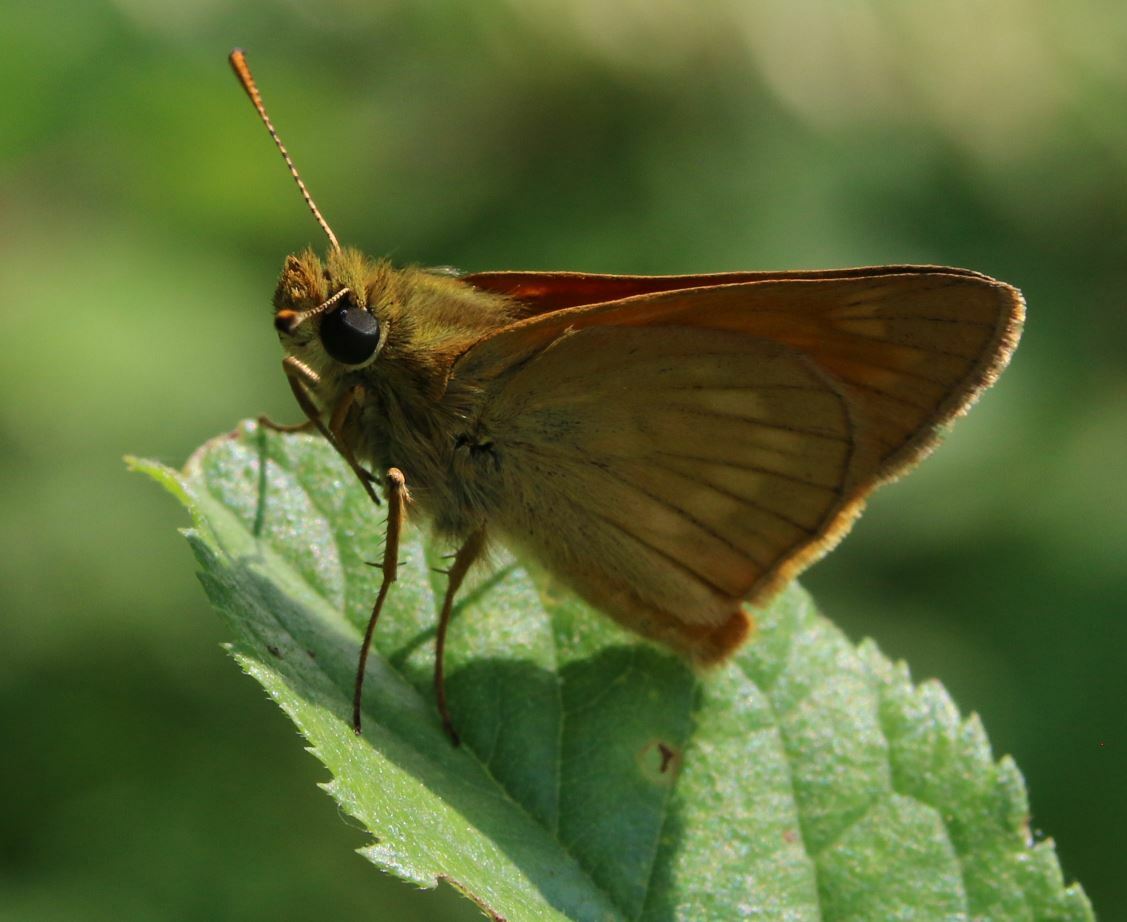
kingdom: Animalia
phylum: Arthropoda
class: Insecta
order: Lepidoptera
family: Hesperiidae
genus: Ochlodes
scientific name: Ochlodes venata
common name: Large skipper
